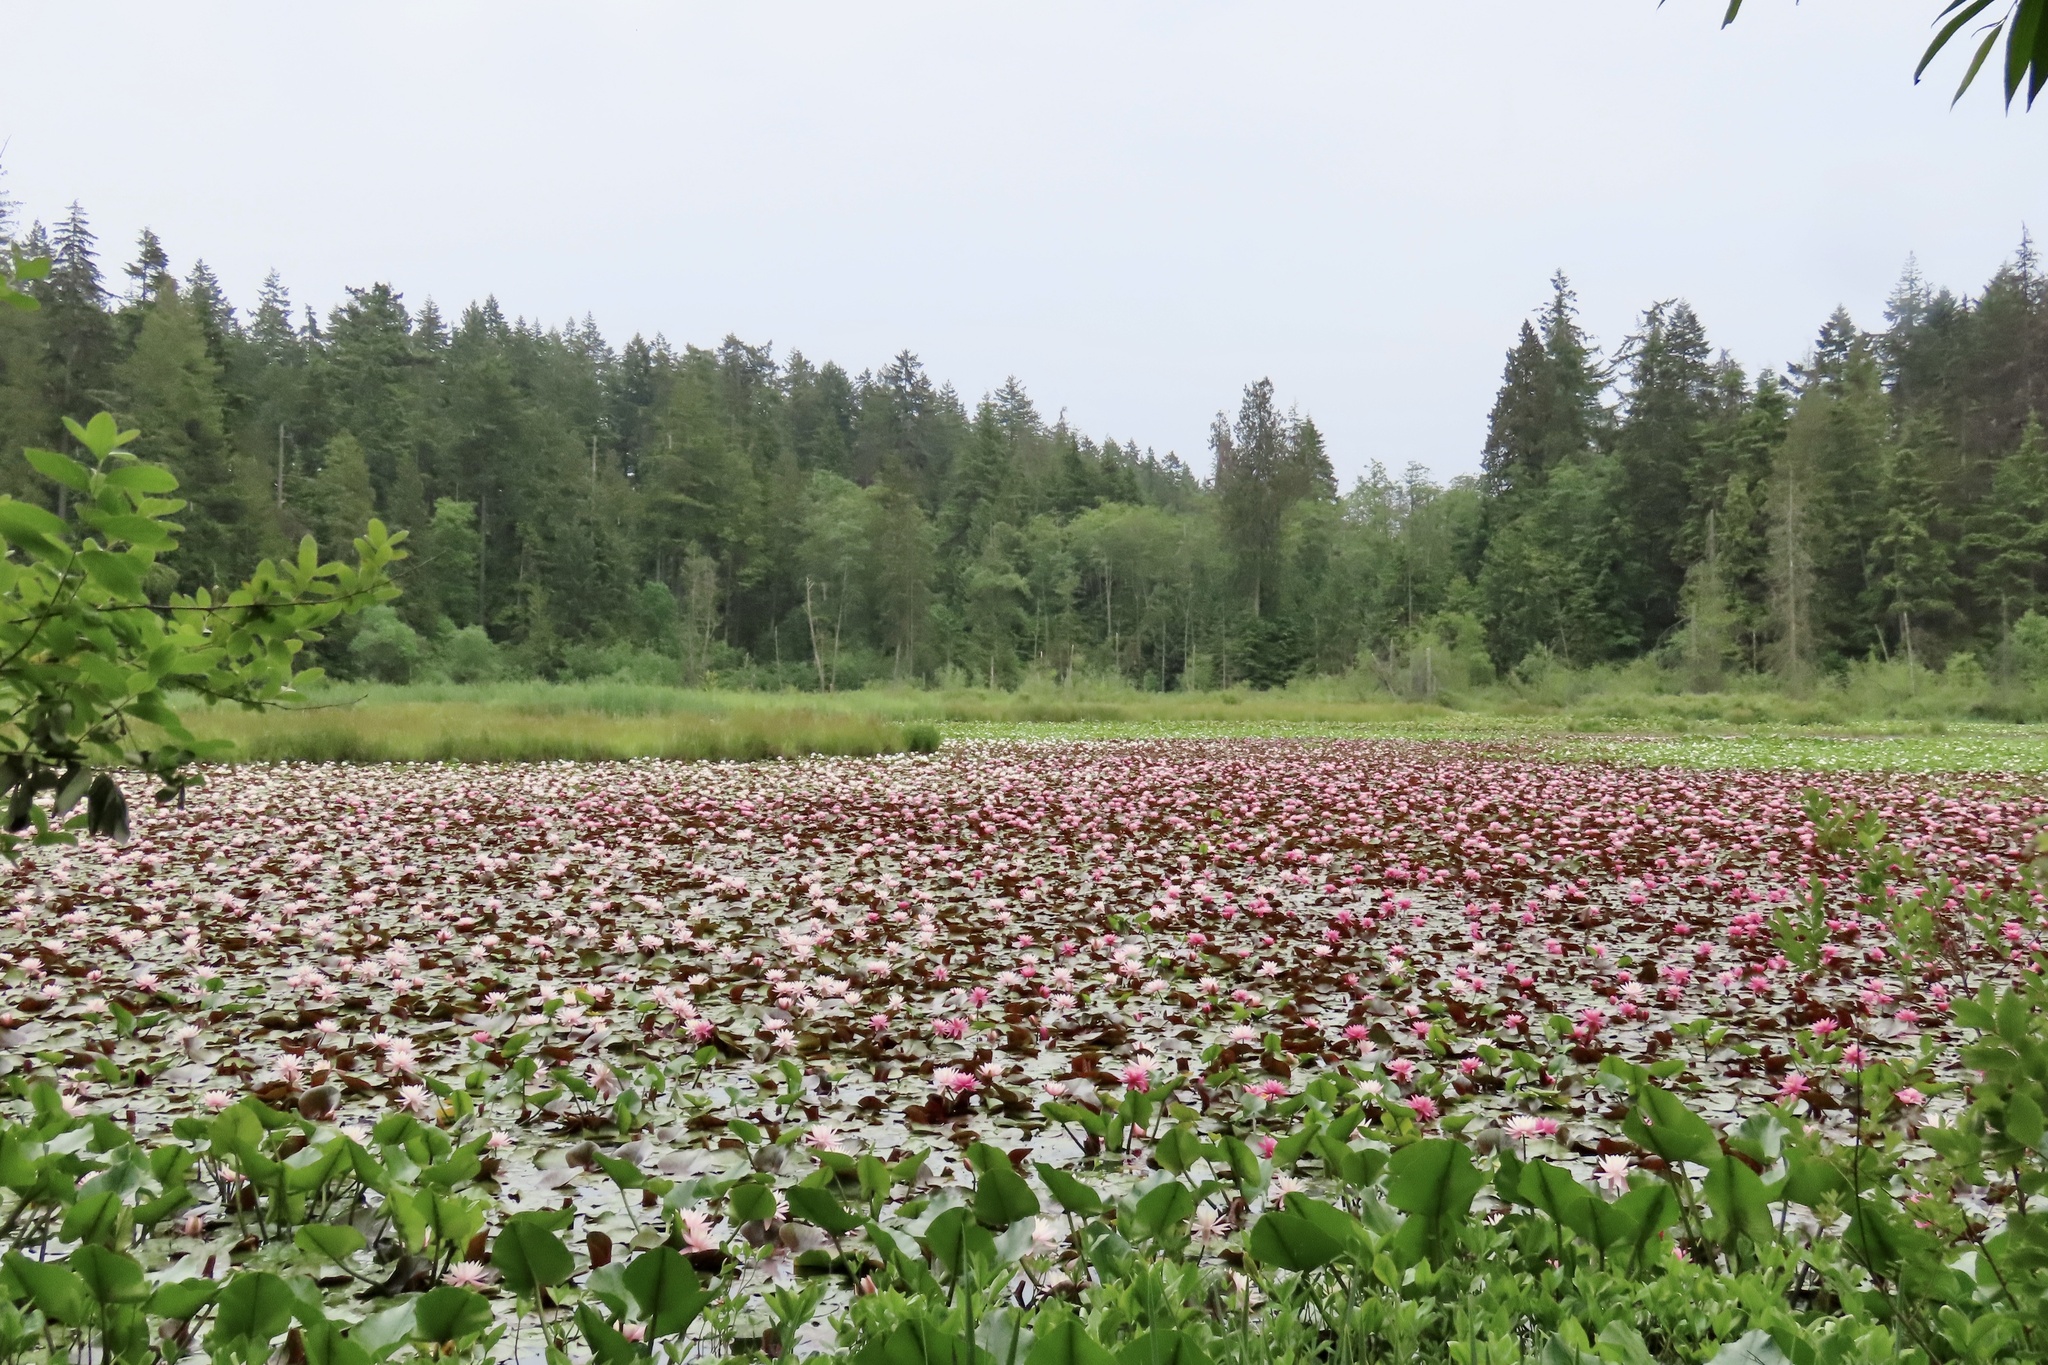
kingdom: Animalia
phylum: Chordata
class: Aves
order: Pelecaniformes
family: Ardeidae
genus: Ardea
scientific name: Ardea herodias
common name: Great blue heron
